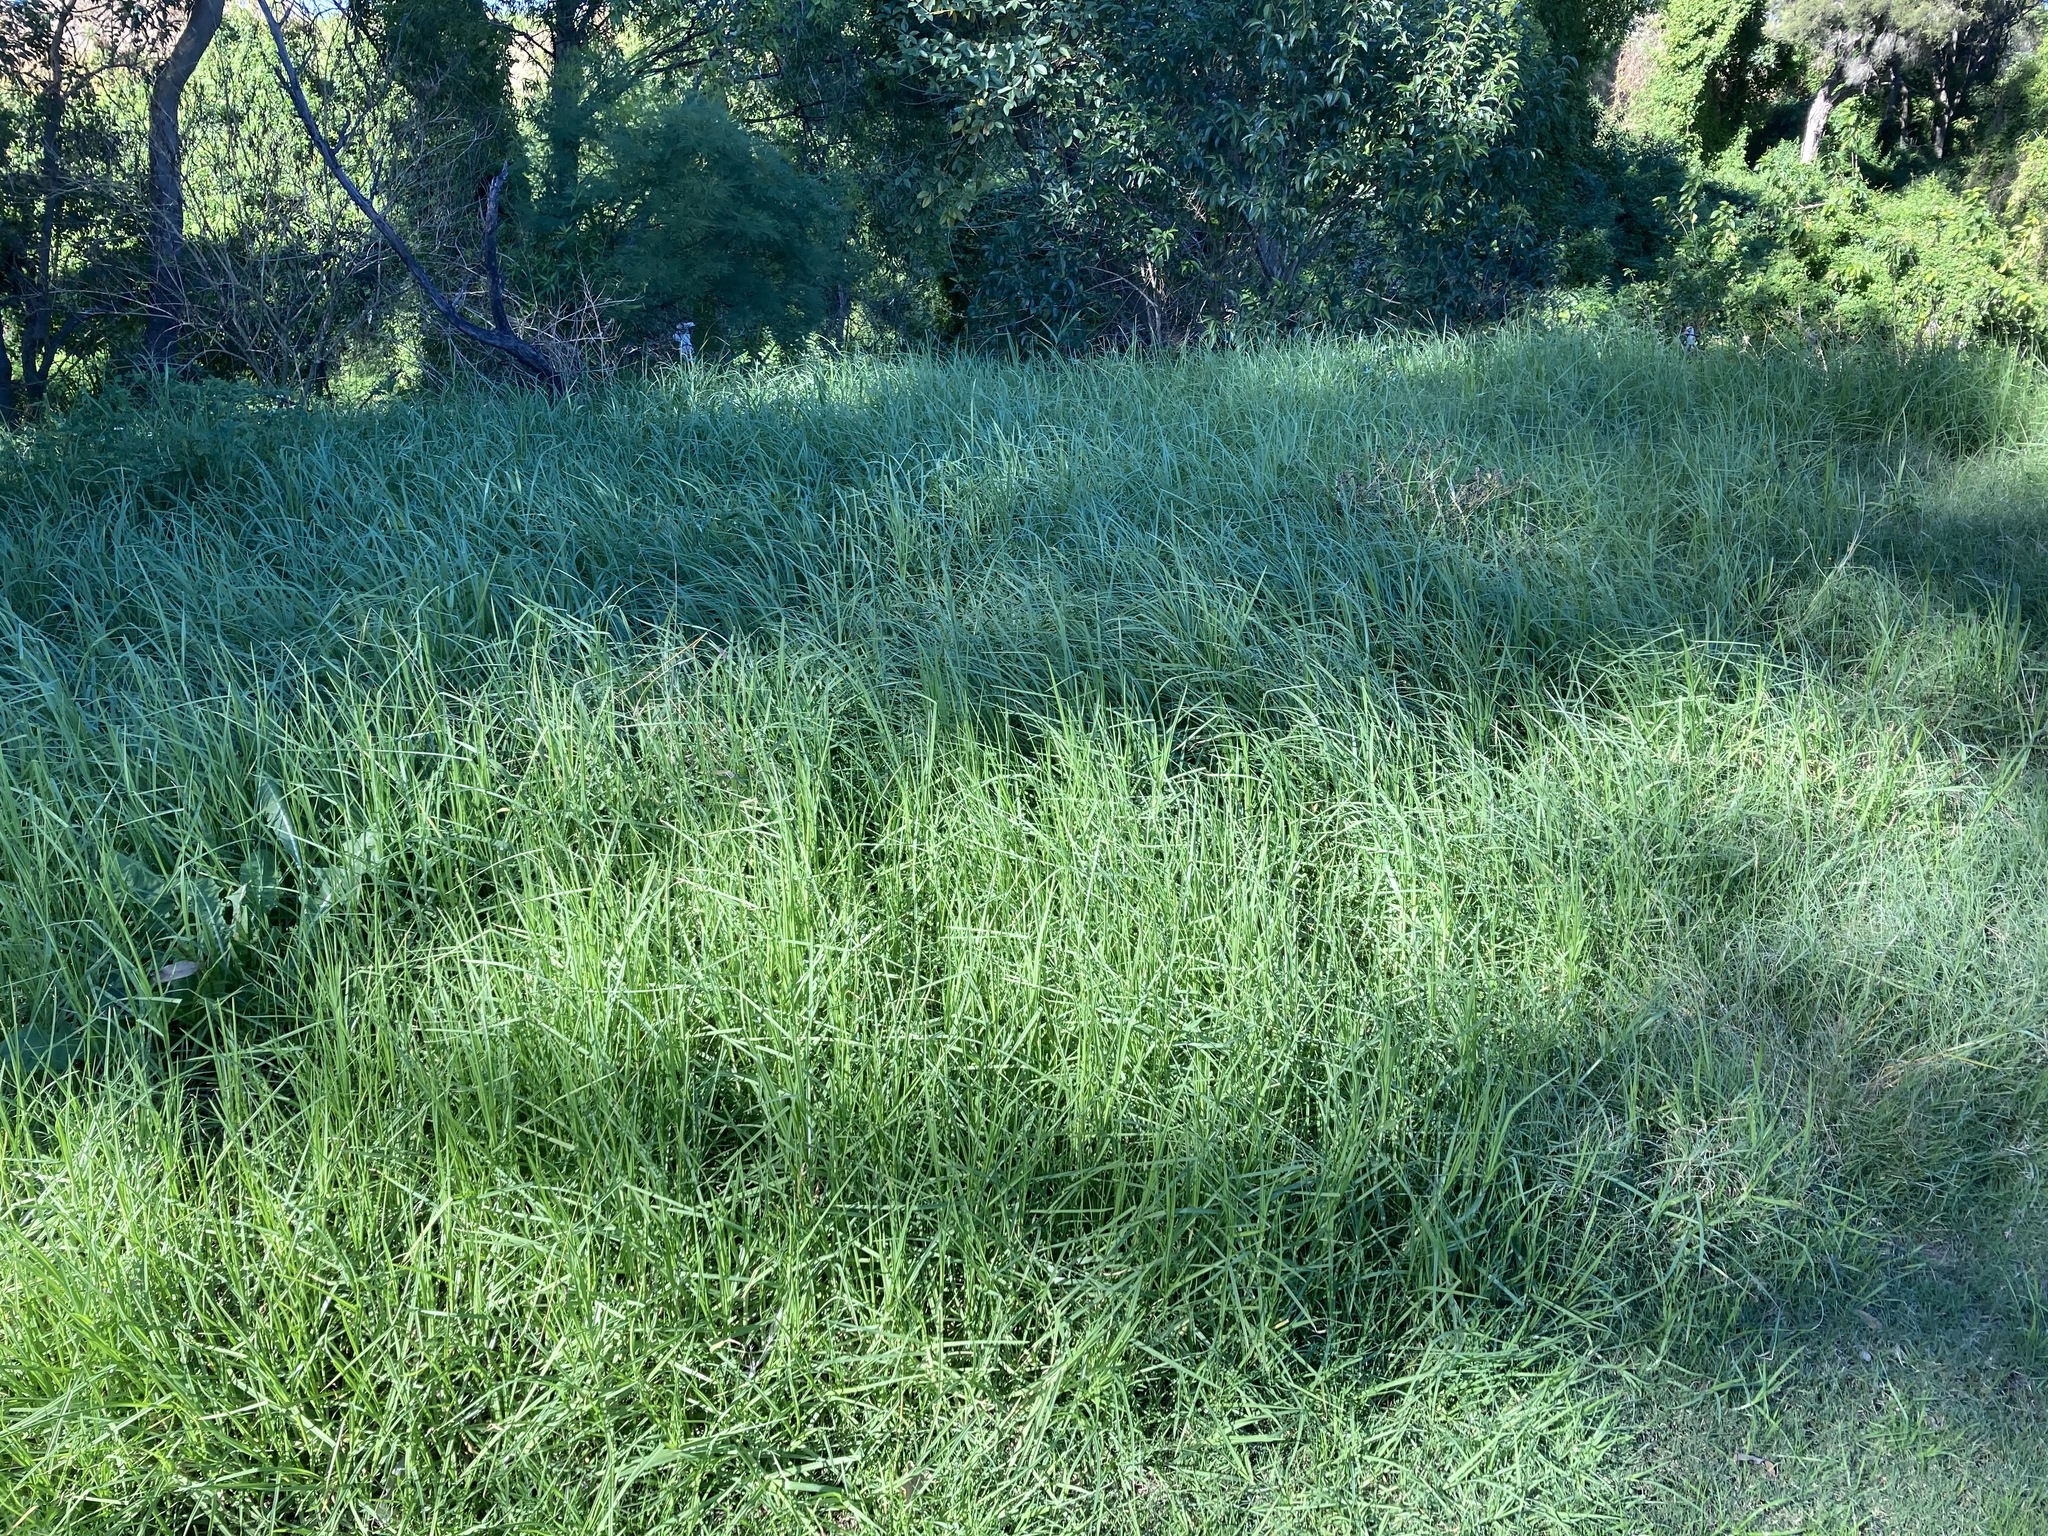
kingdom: Plantae
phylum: Tracheophyta
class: Liliopsida
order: Poales
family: Poaceae
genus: Cenchrus
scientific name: Cenchrus clandestinus
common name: Kikuyugrass
